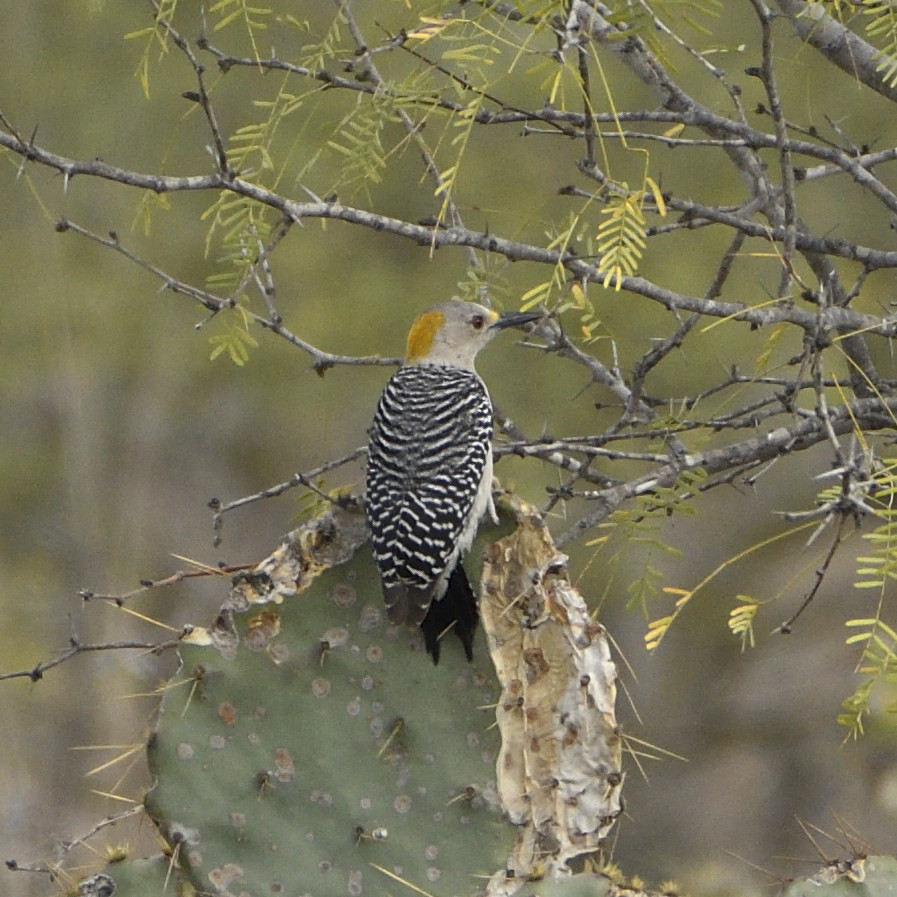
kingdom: Animalia
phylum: Chordata
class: Aves
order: Piciformes
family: Picidae
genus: Melanerpes
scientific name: Melanerpes aurifrons
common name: Golden-fronted woodpecker
